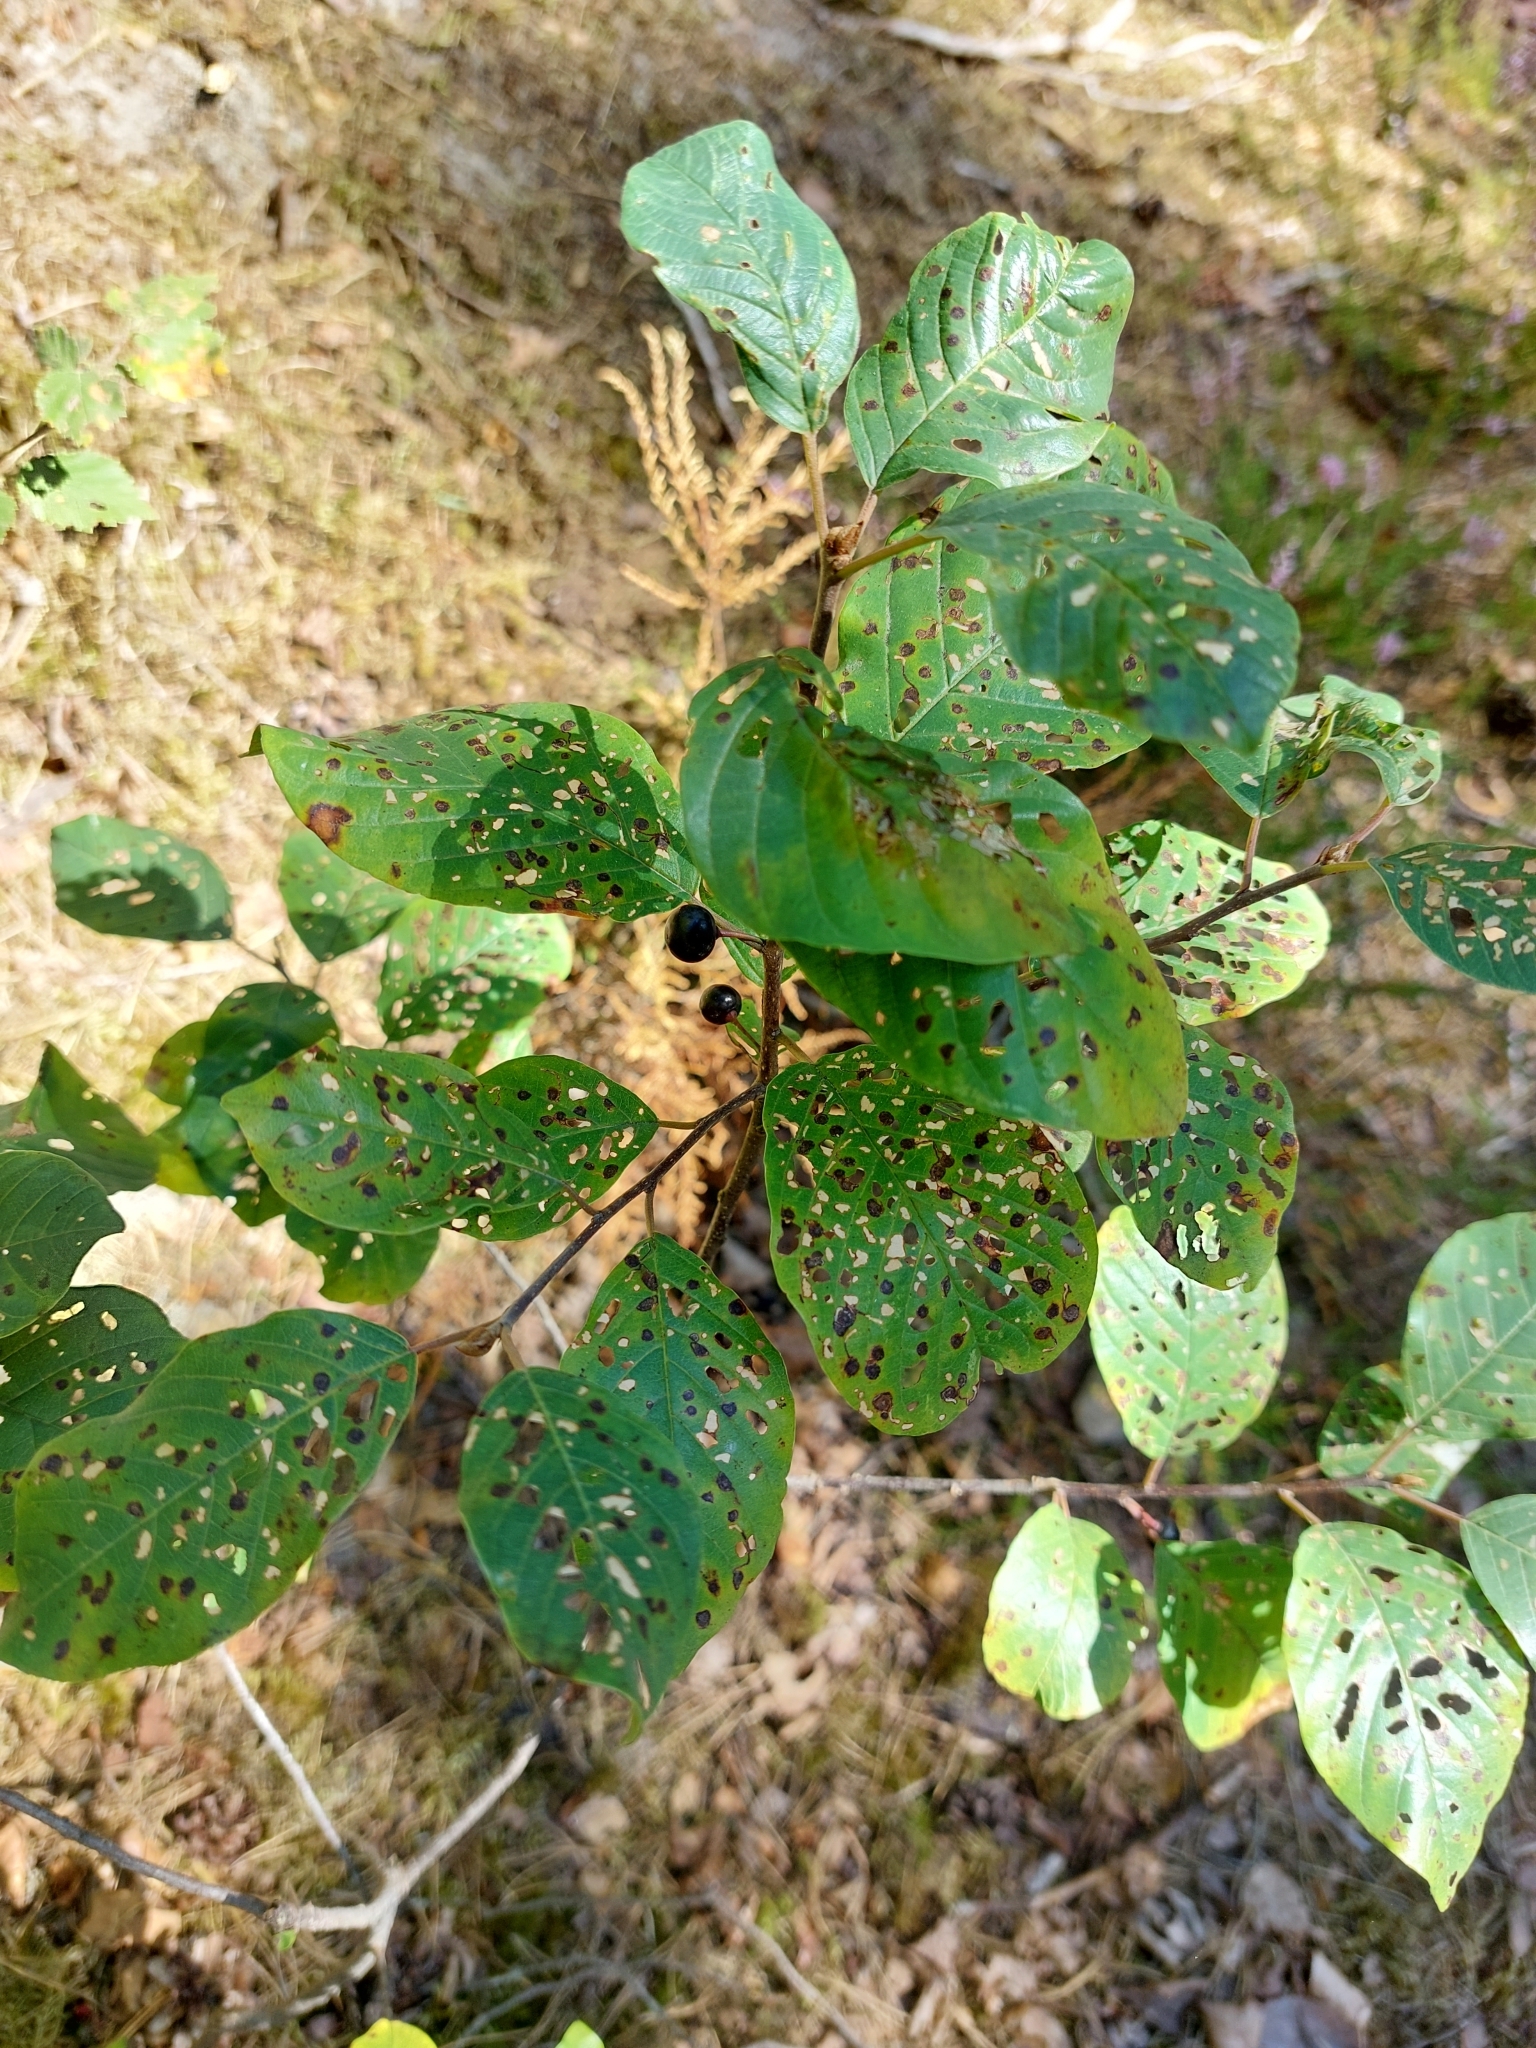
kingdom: Plantae
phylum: Tracheophyta
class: Magnoliopsida
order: Rosales
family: Rhamnaceae
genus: Frangula
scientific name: Frangula alnus
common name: Alder buckthorn
